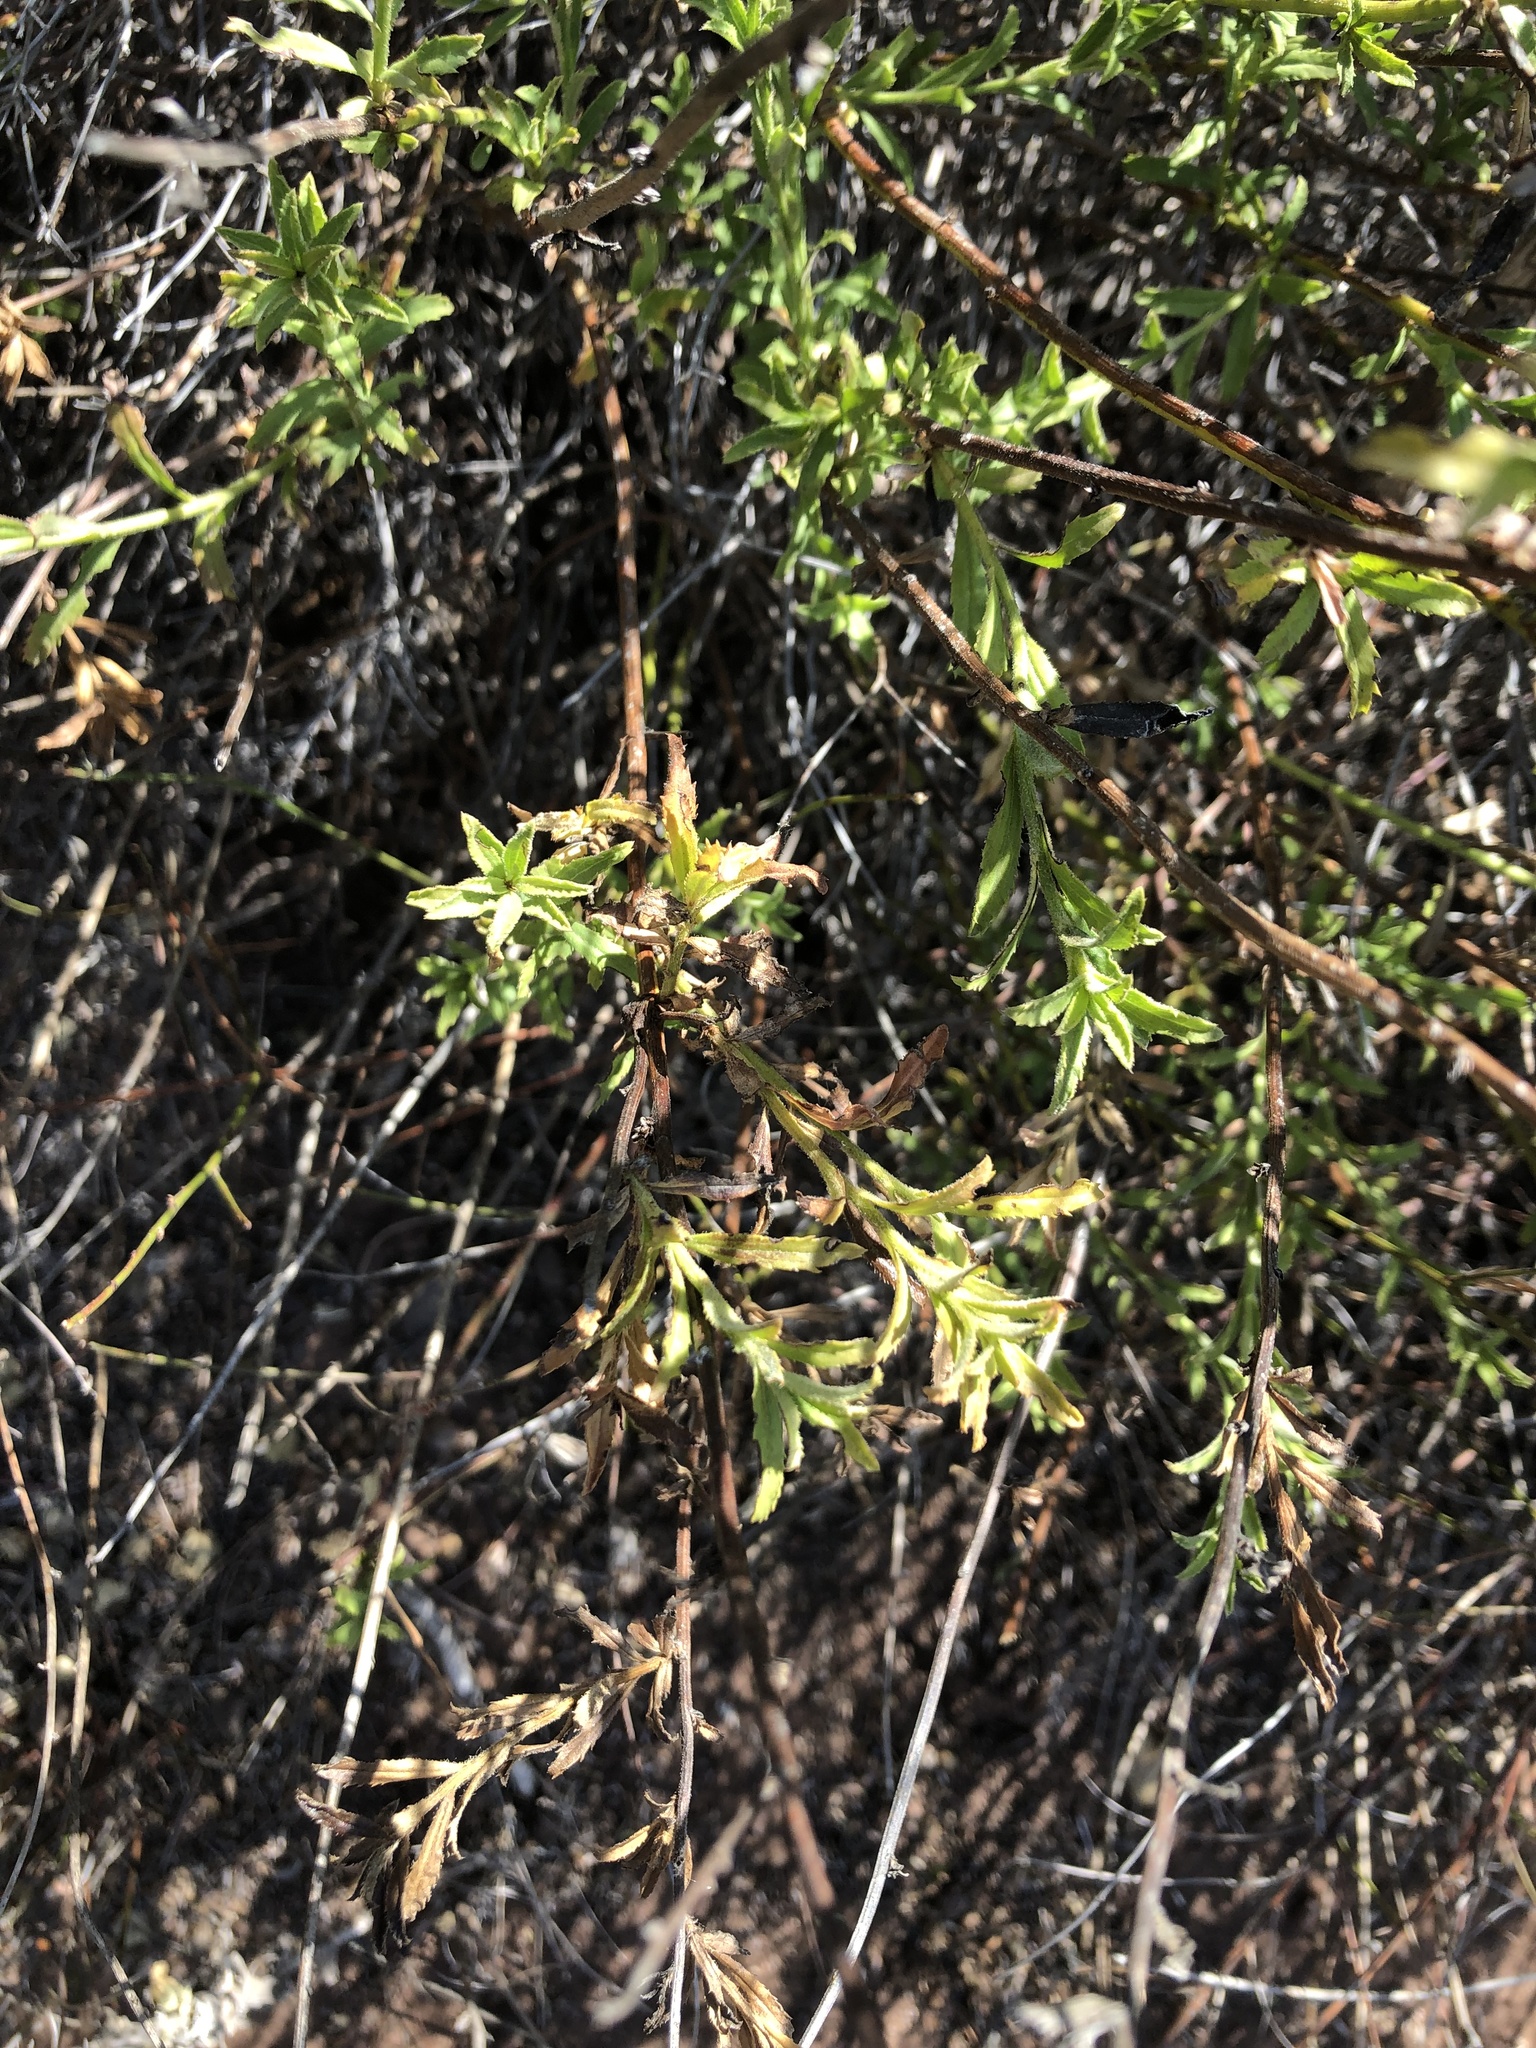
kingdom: Plantae
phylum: Tracheophyta
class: Magnoliopsida
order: Asterales
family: Asteraceae
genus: Baccharis
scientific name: Baccharis plummerae
